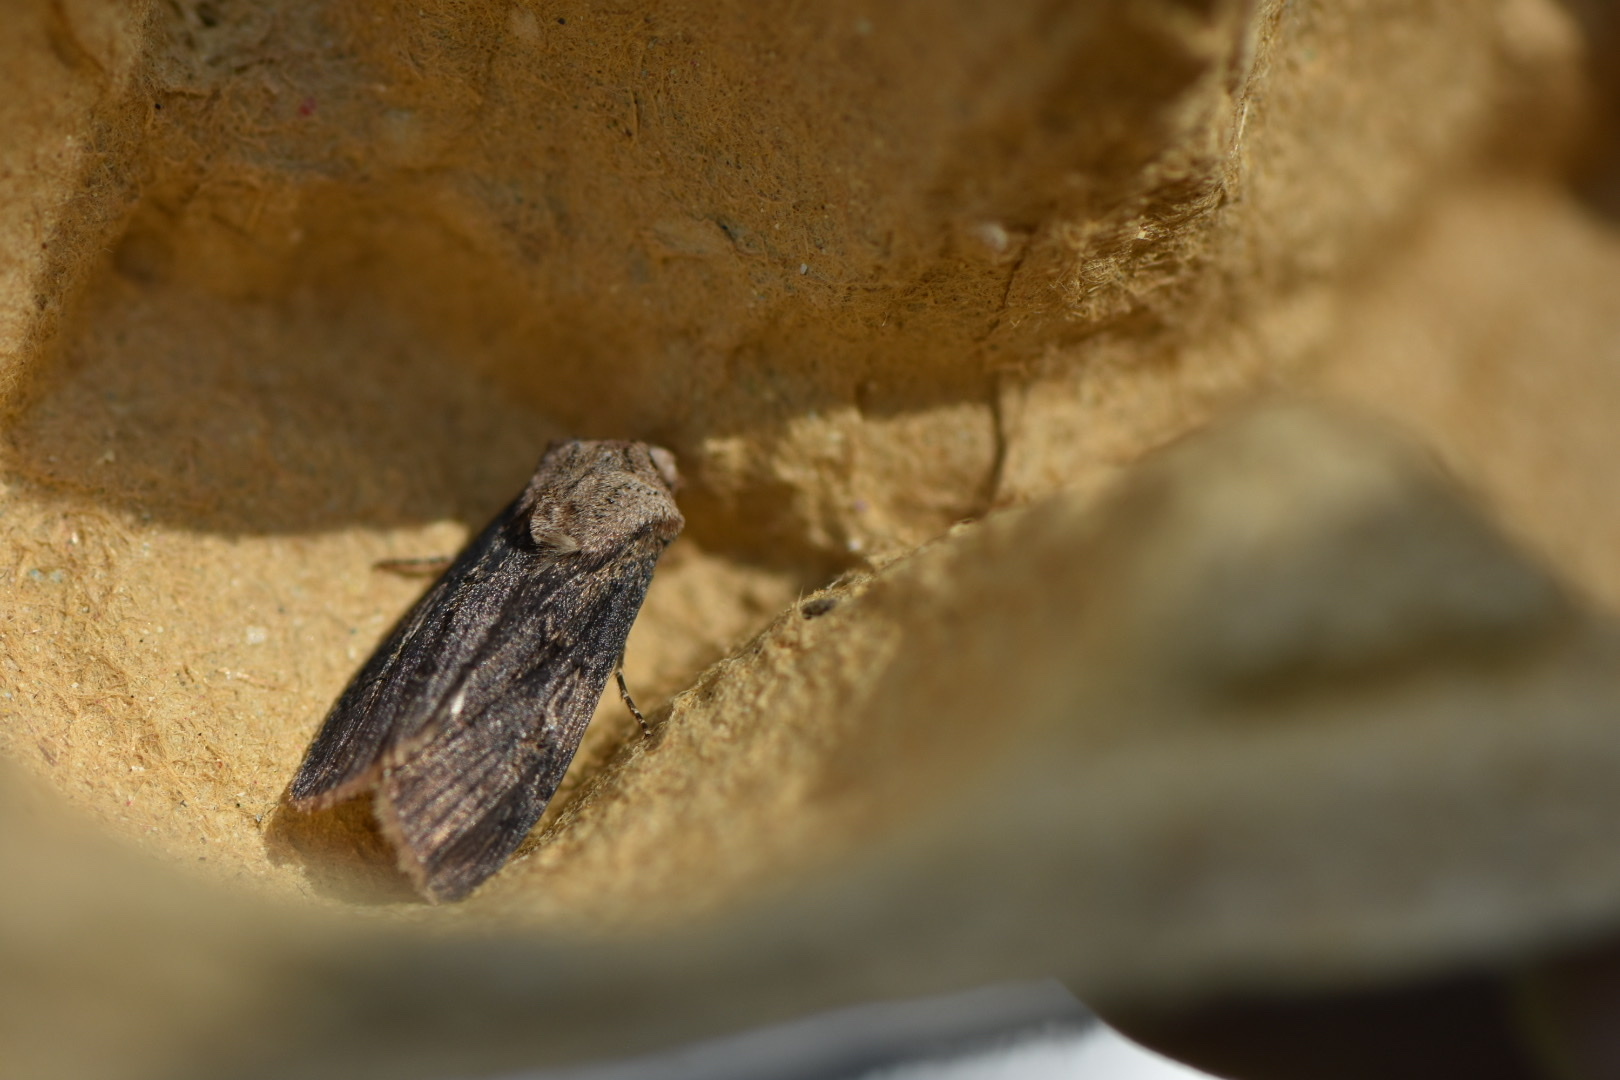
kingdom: Animalia
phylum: Arthropoda
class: Insecta
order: Lepidoptera
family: Noctuidae
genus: Agrotis
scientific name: Agrotis puta
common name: Shuttle-shaped dart
